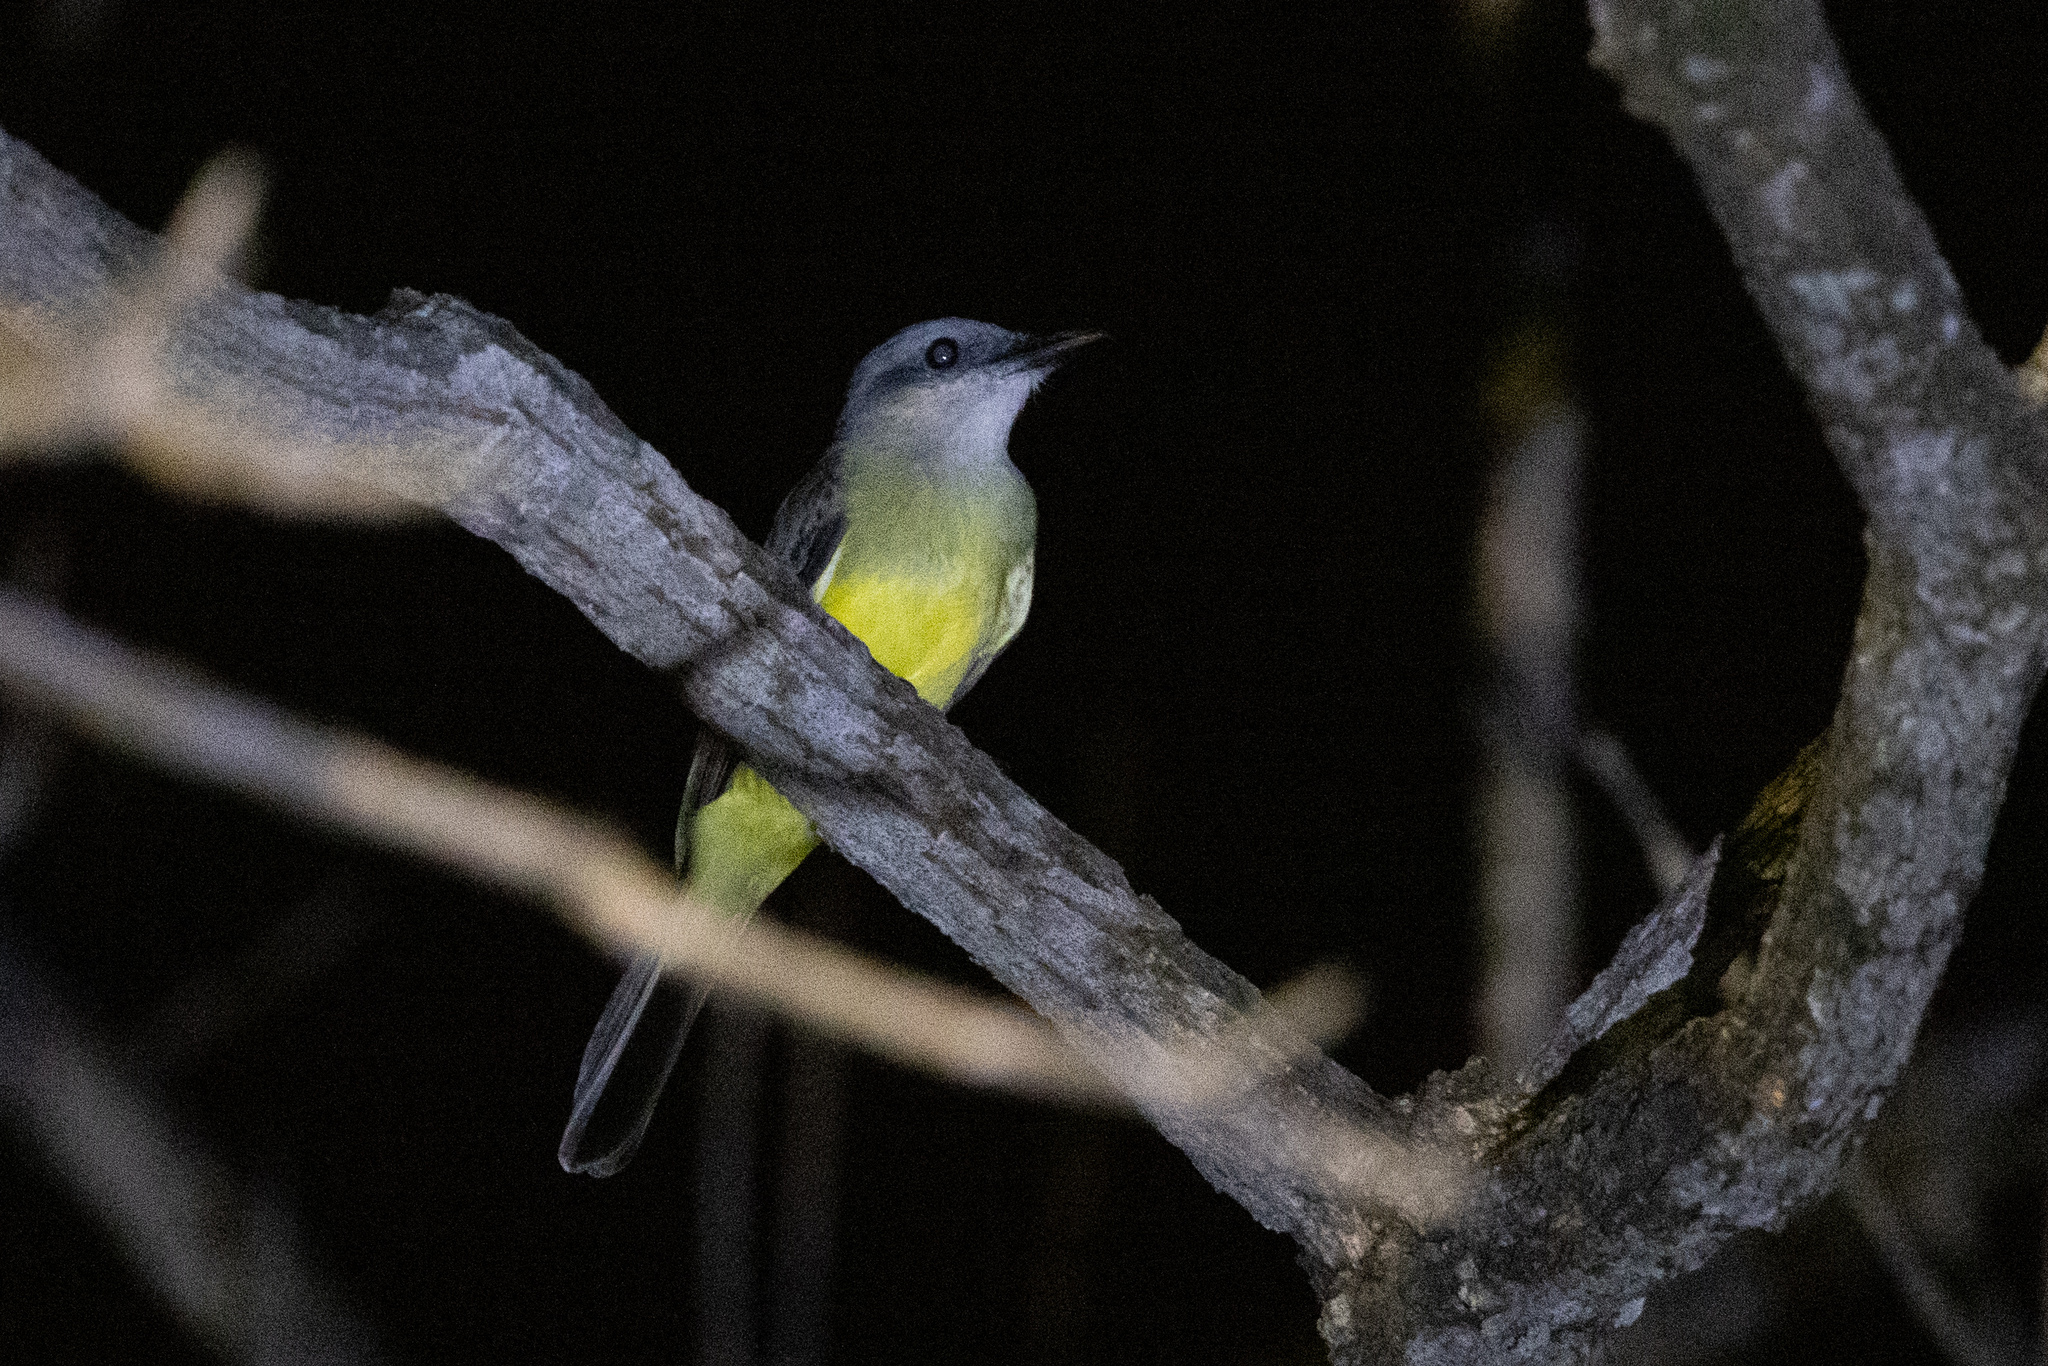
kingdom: Animalia
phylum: Chordata
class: Aves
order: Passeriformes
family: Tyrannidae
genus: Tyrannus
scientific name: Tyrannus melancholicus
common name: Tropical kingbird
